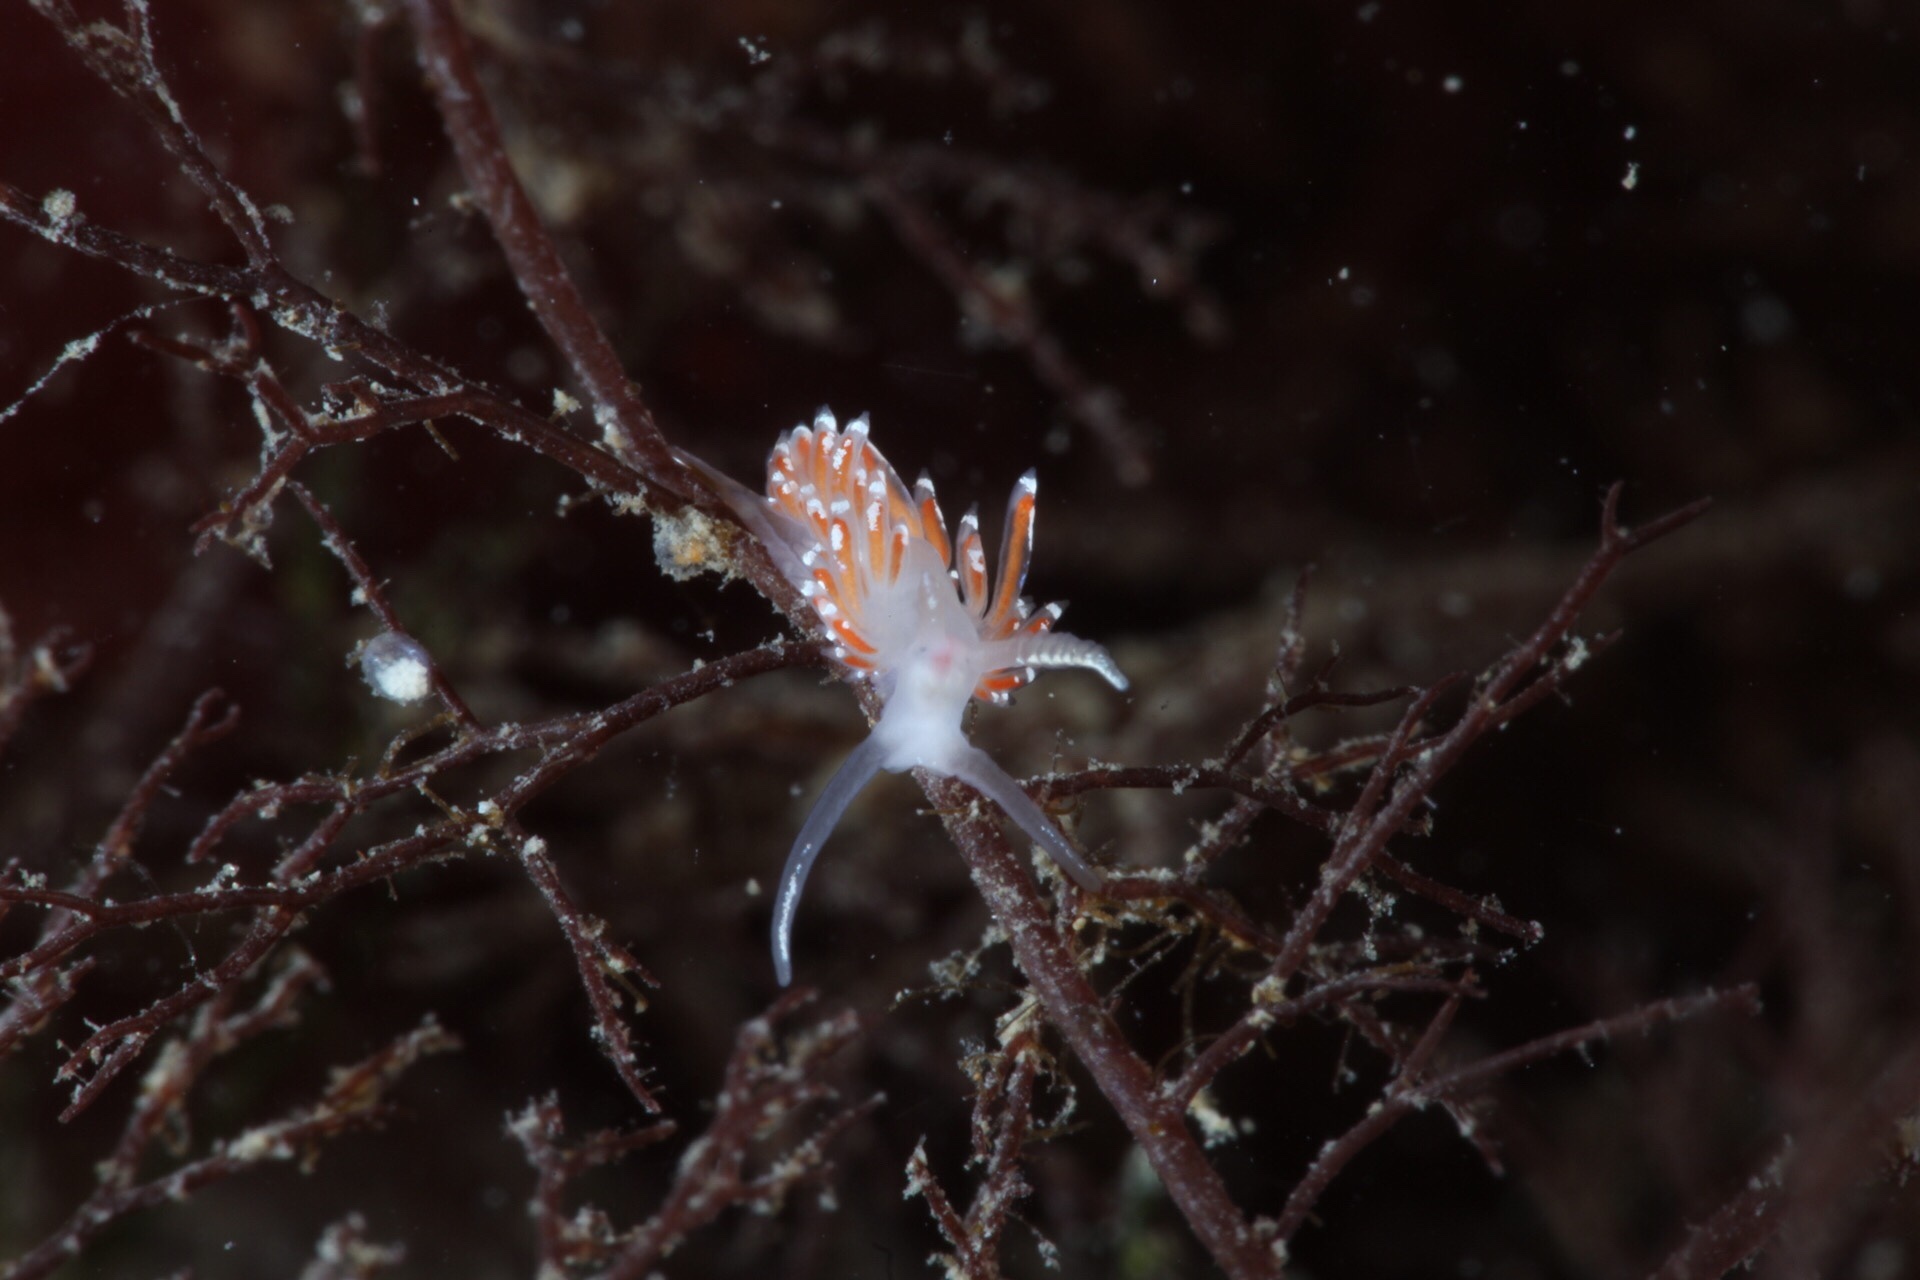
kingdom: Animalia
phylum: Mollusca
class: Gastropoda
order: Nudibranchia
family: Facelinidae
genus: Facelina
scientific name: Facelina auriculata
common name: Slender facelina
